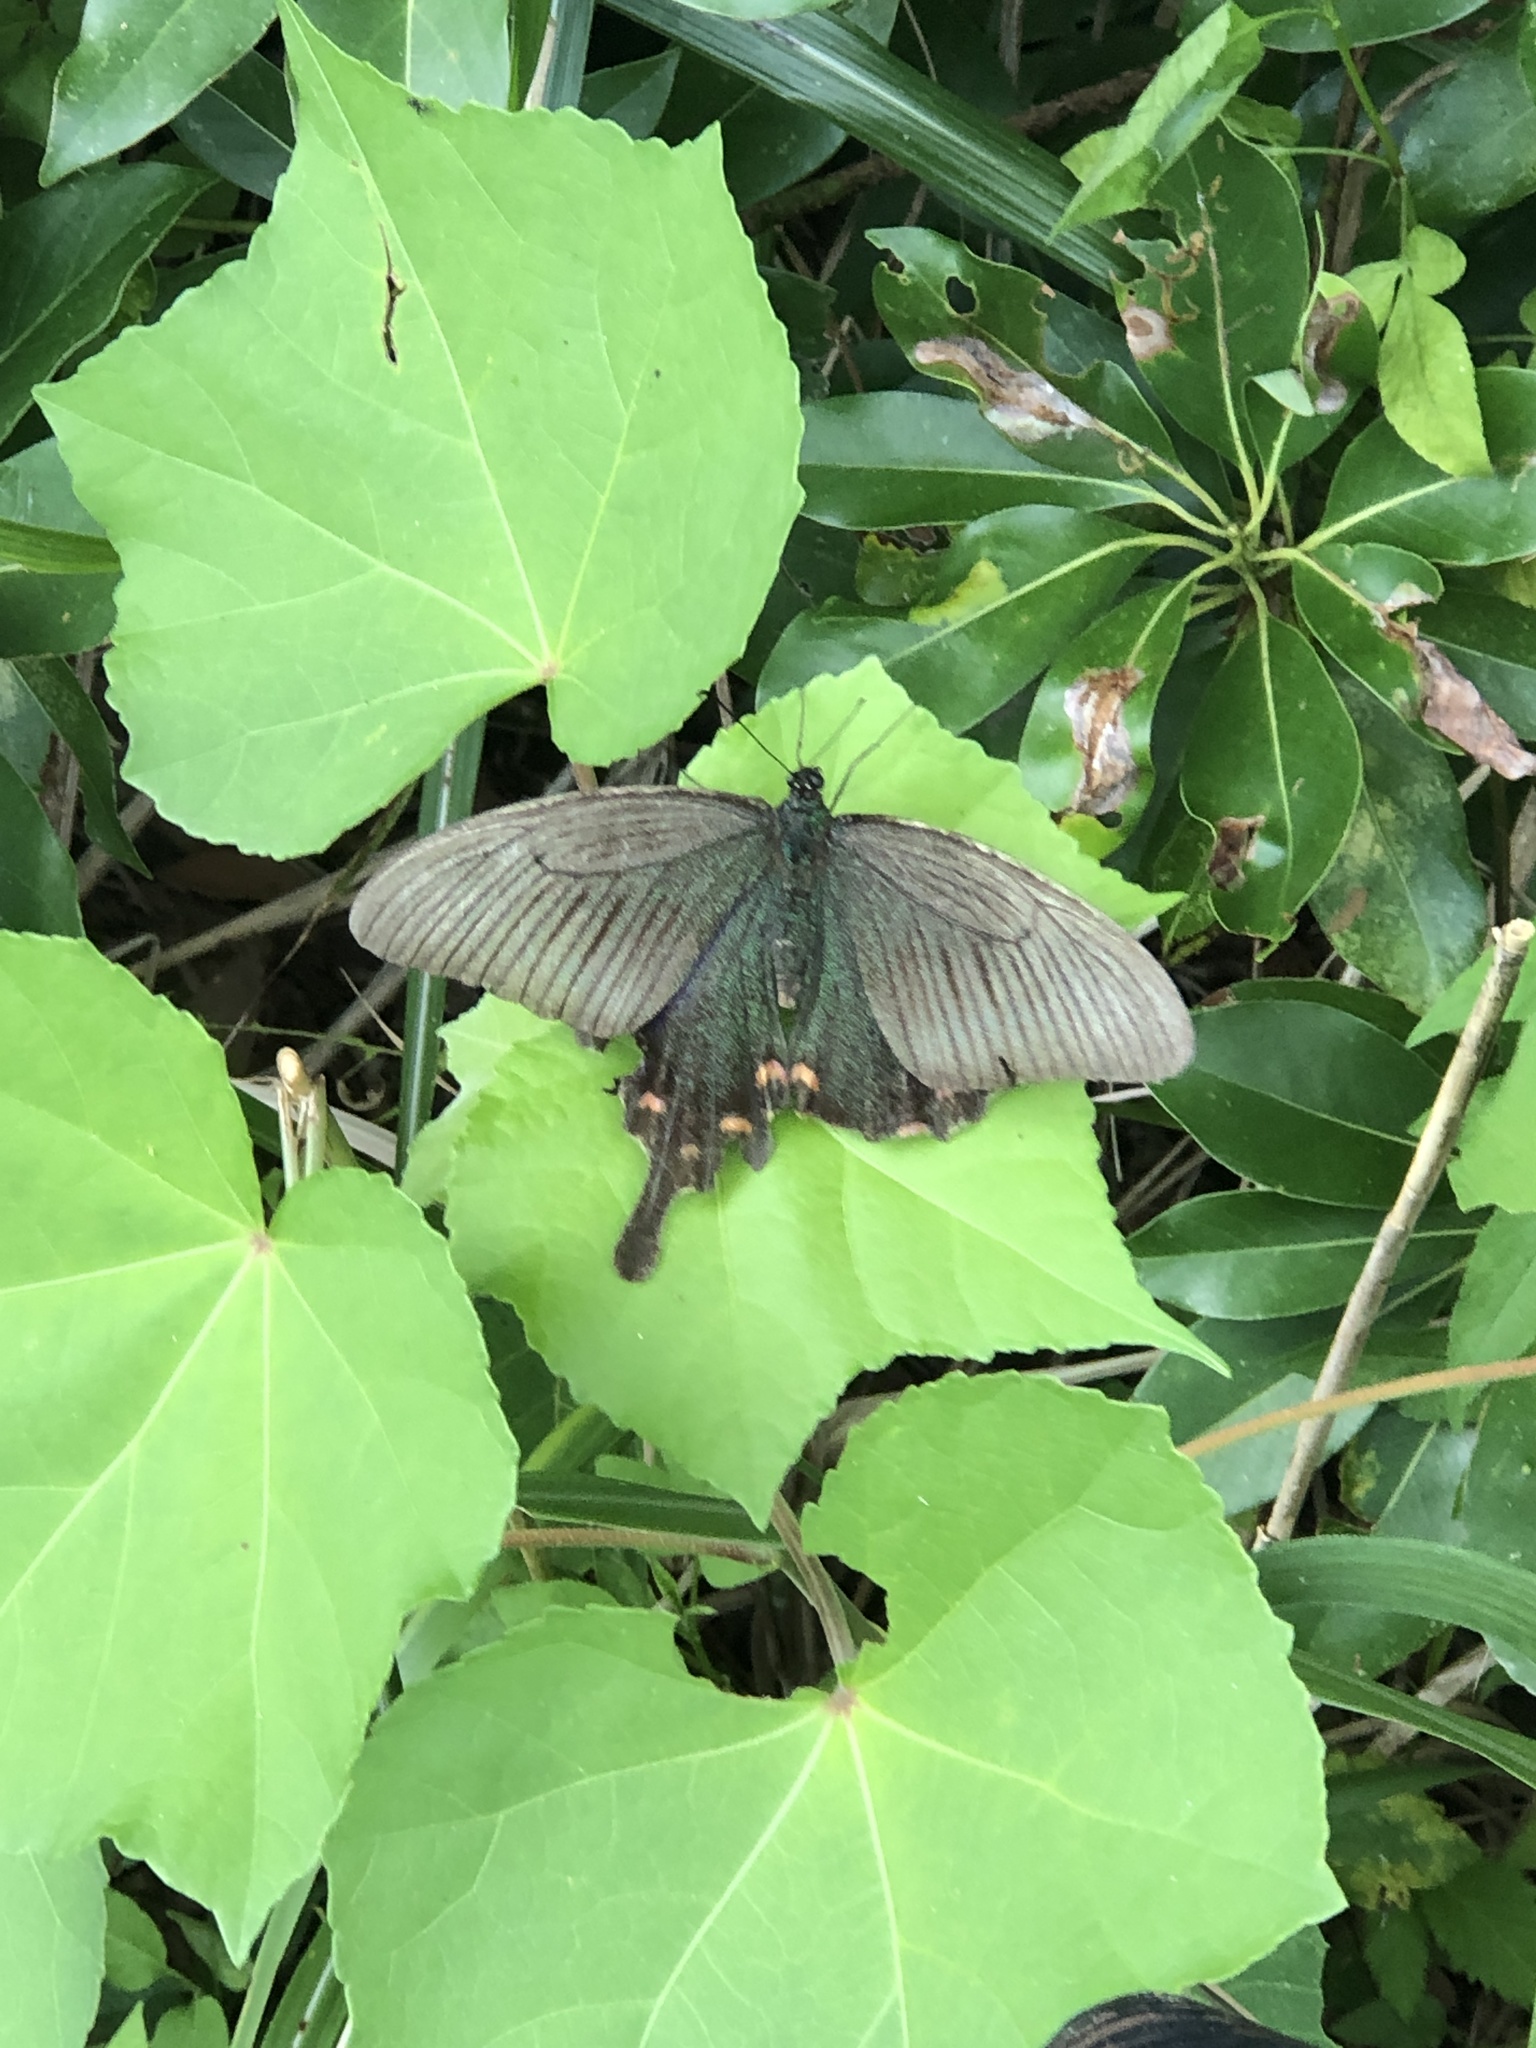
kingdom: Animalia
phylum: Arthropoda
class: Insecta
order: Lepidoptera
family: Papilionidae
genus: Papilio
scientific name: Papilio bianor
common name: Common peacock
